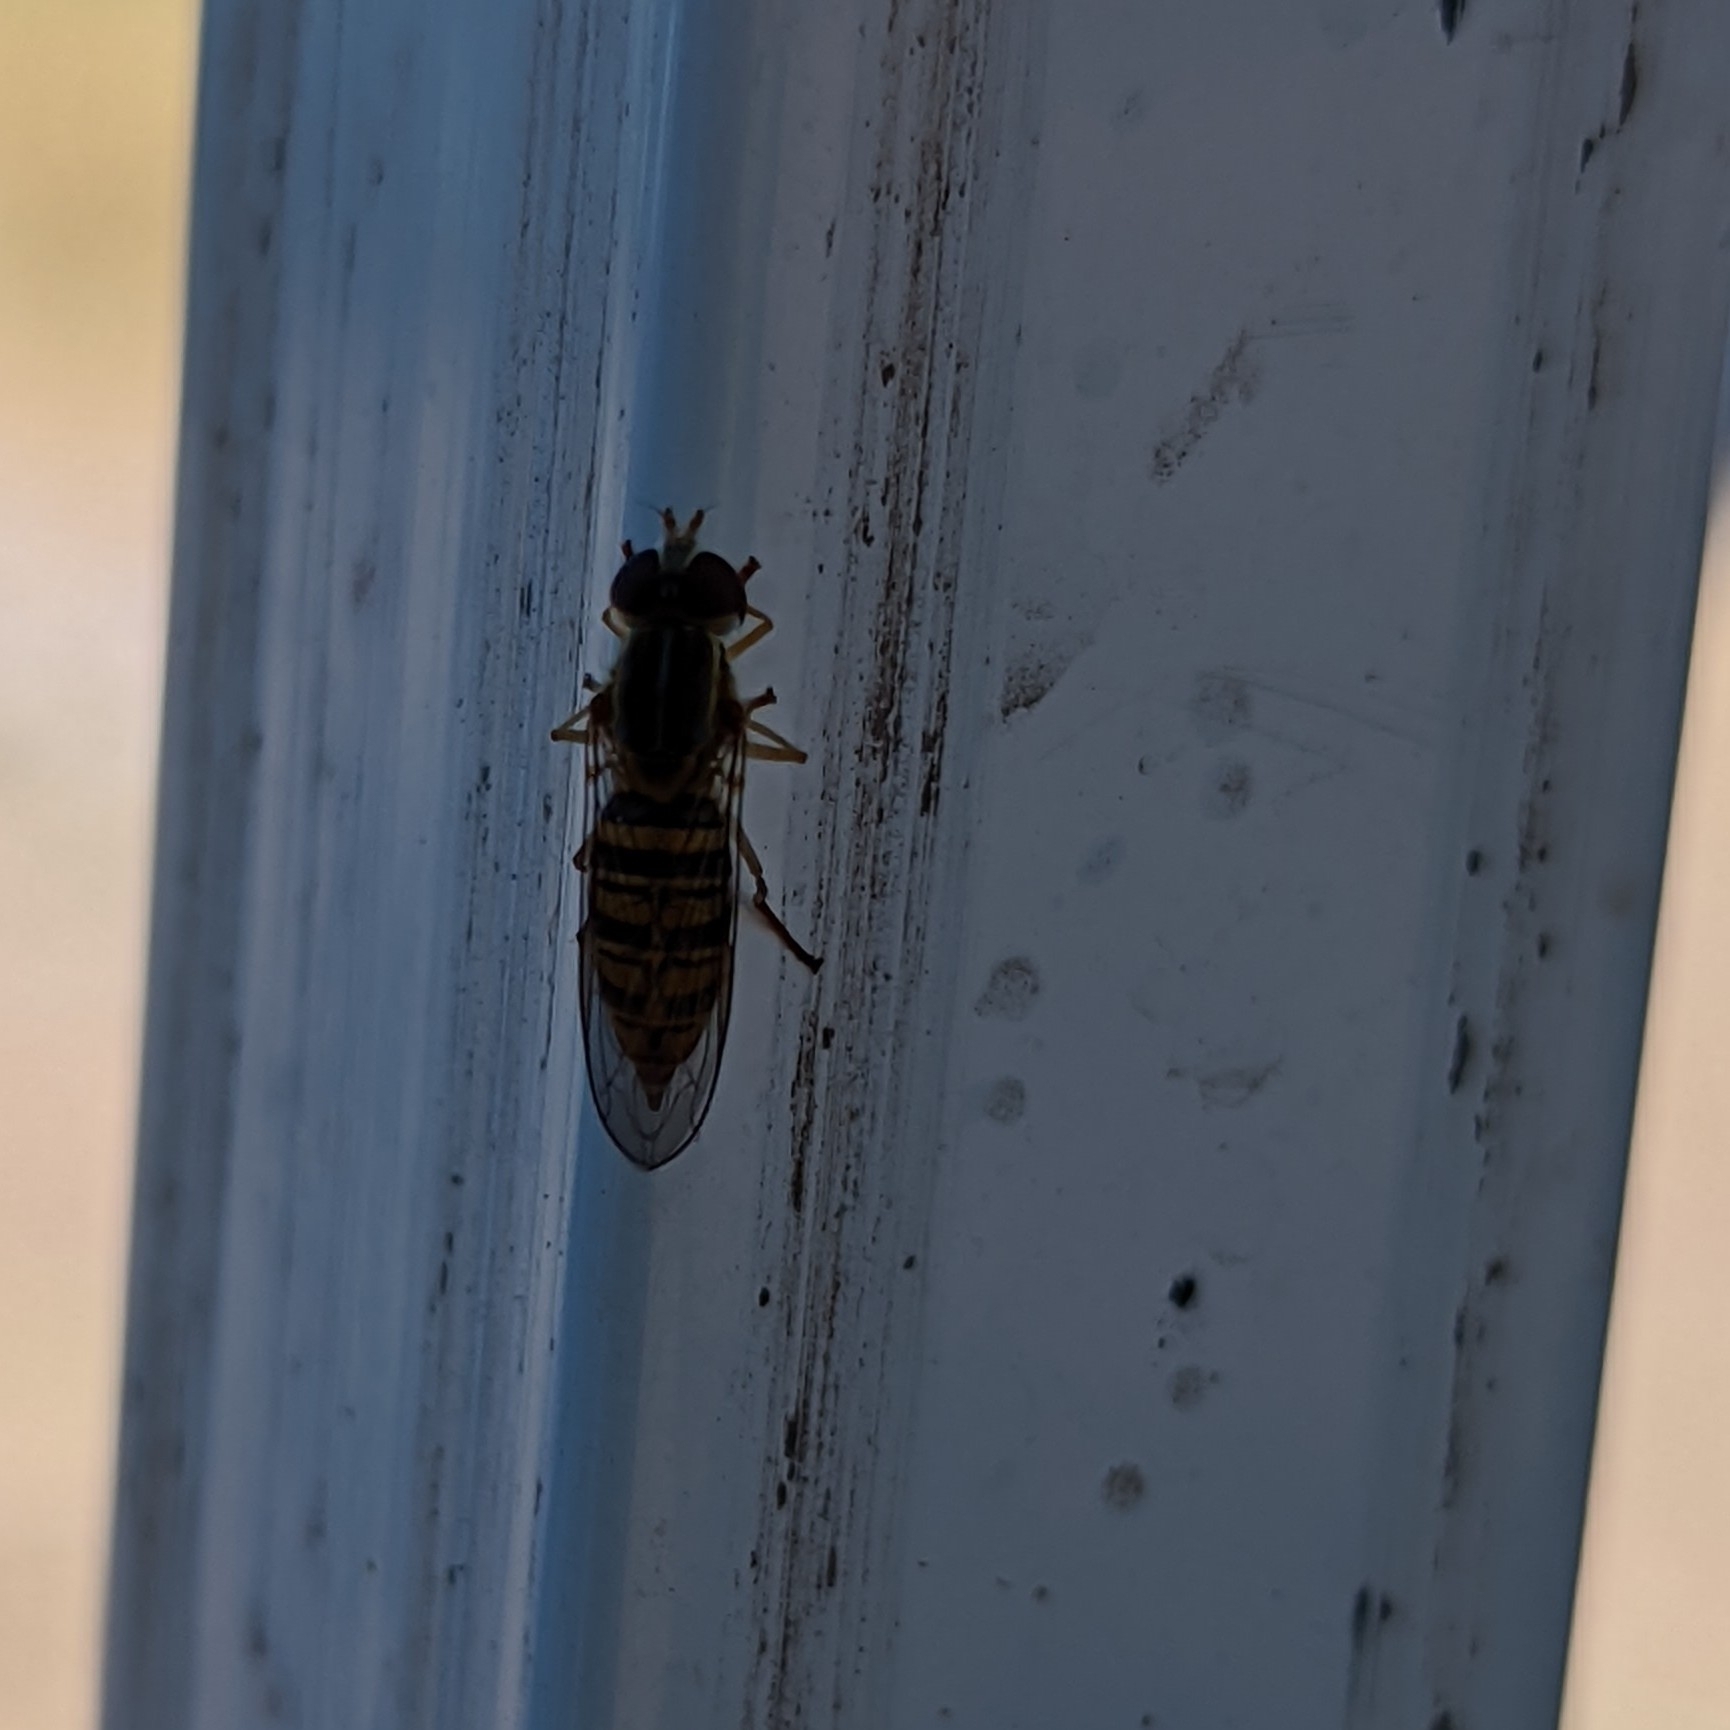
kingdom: Animalia
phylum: Arthropoda
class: Insecta
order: Diptera
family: Syrphidae
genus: Toxomerus
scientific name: Toxomerus politus
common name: Maize calligrapher
